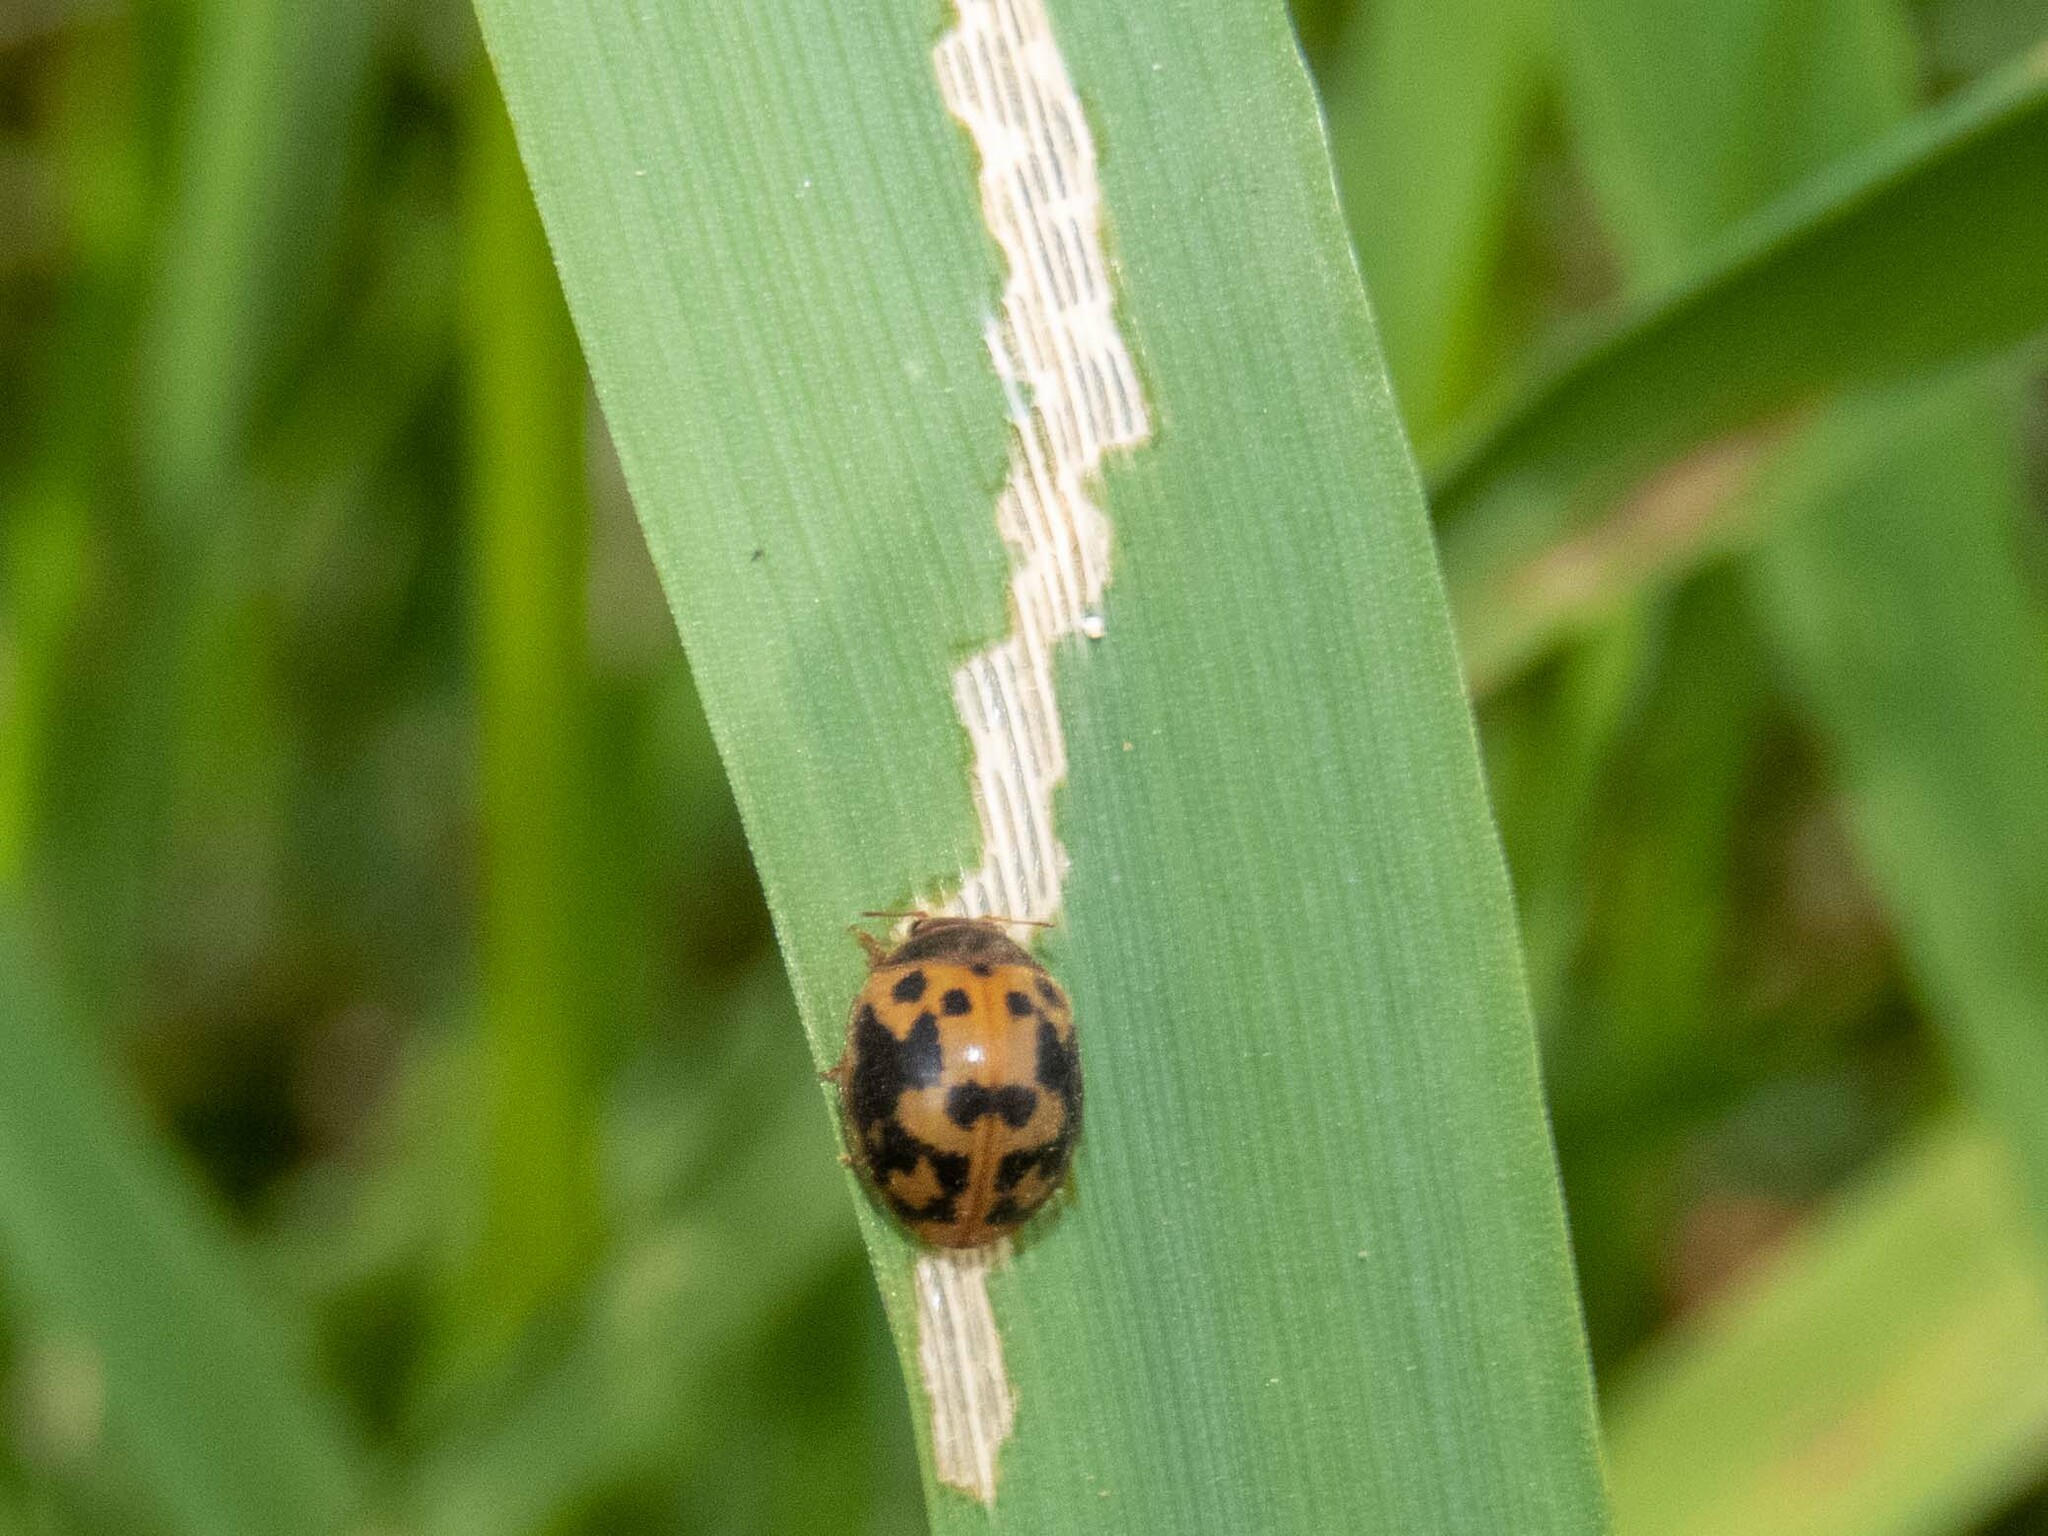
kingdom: Animalia
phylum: Arthropoda
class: Insecta
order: Coleoptera
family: Coccinellidae
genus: Subcoccinella
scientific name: Subcoccinella vigintiquatuorpunctata
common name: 24-spot ladybird
